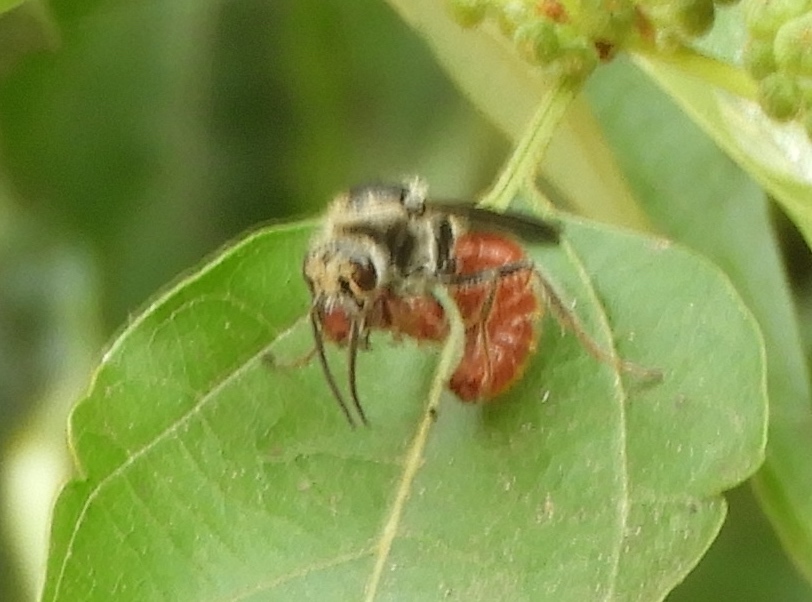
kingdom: Animalia
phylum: Arthropoda
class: Insecta
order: Hymenoptera
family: Mutillidae
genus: Timulla
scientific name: Timulla
